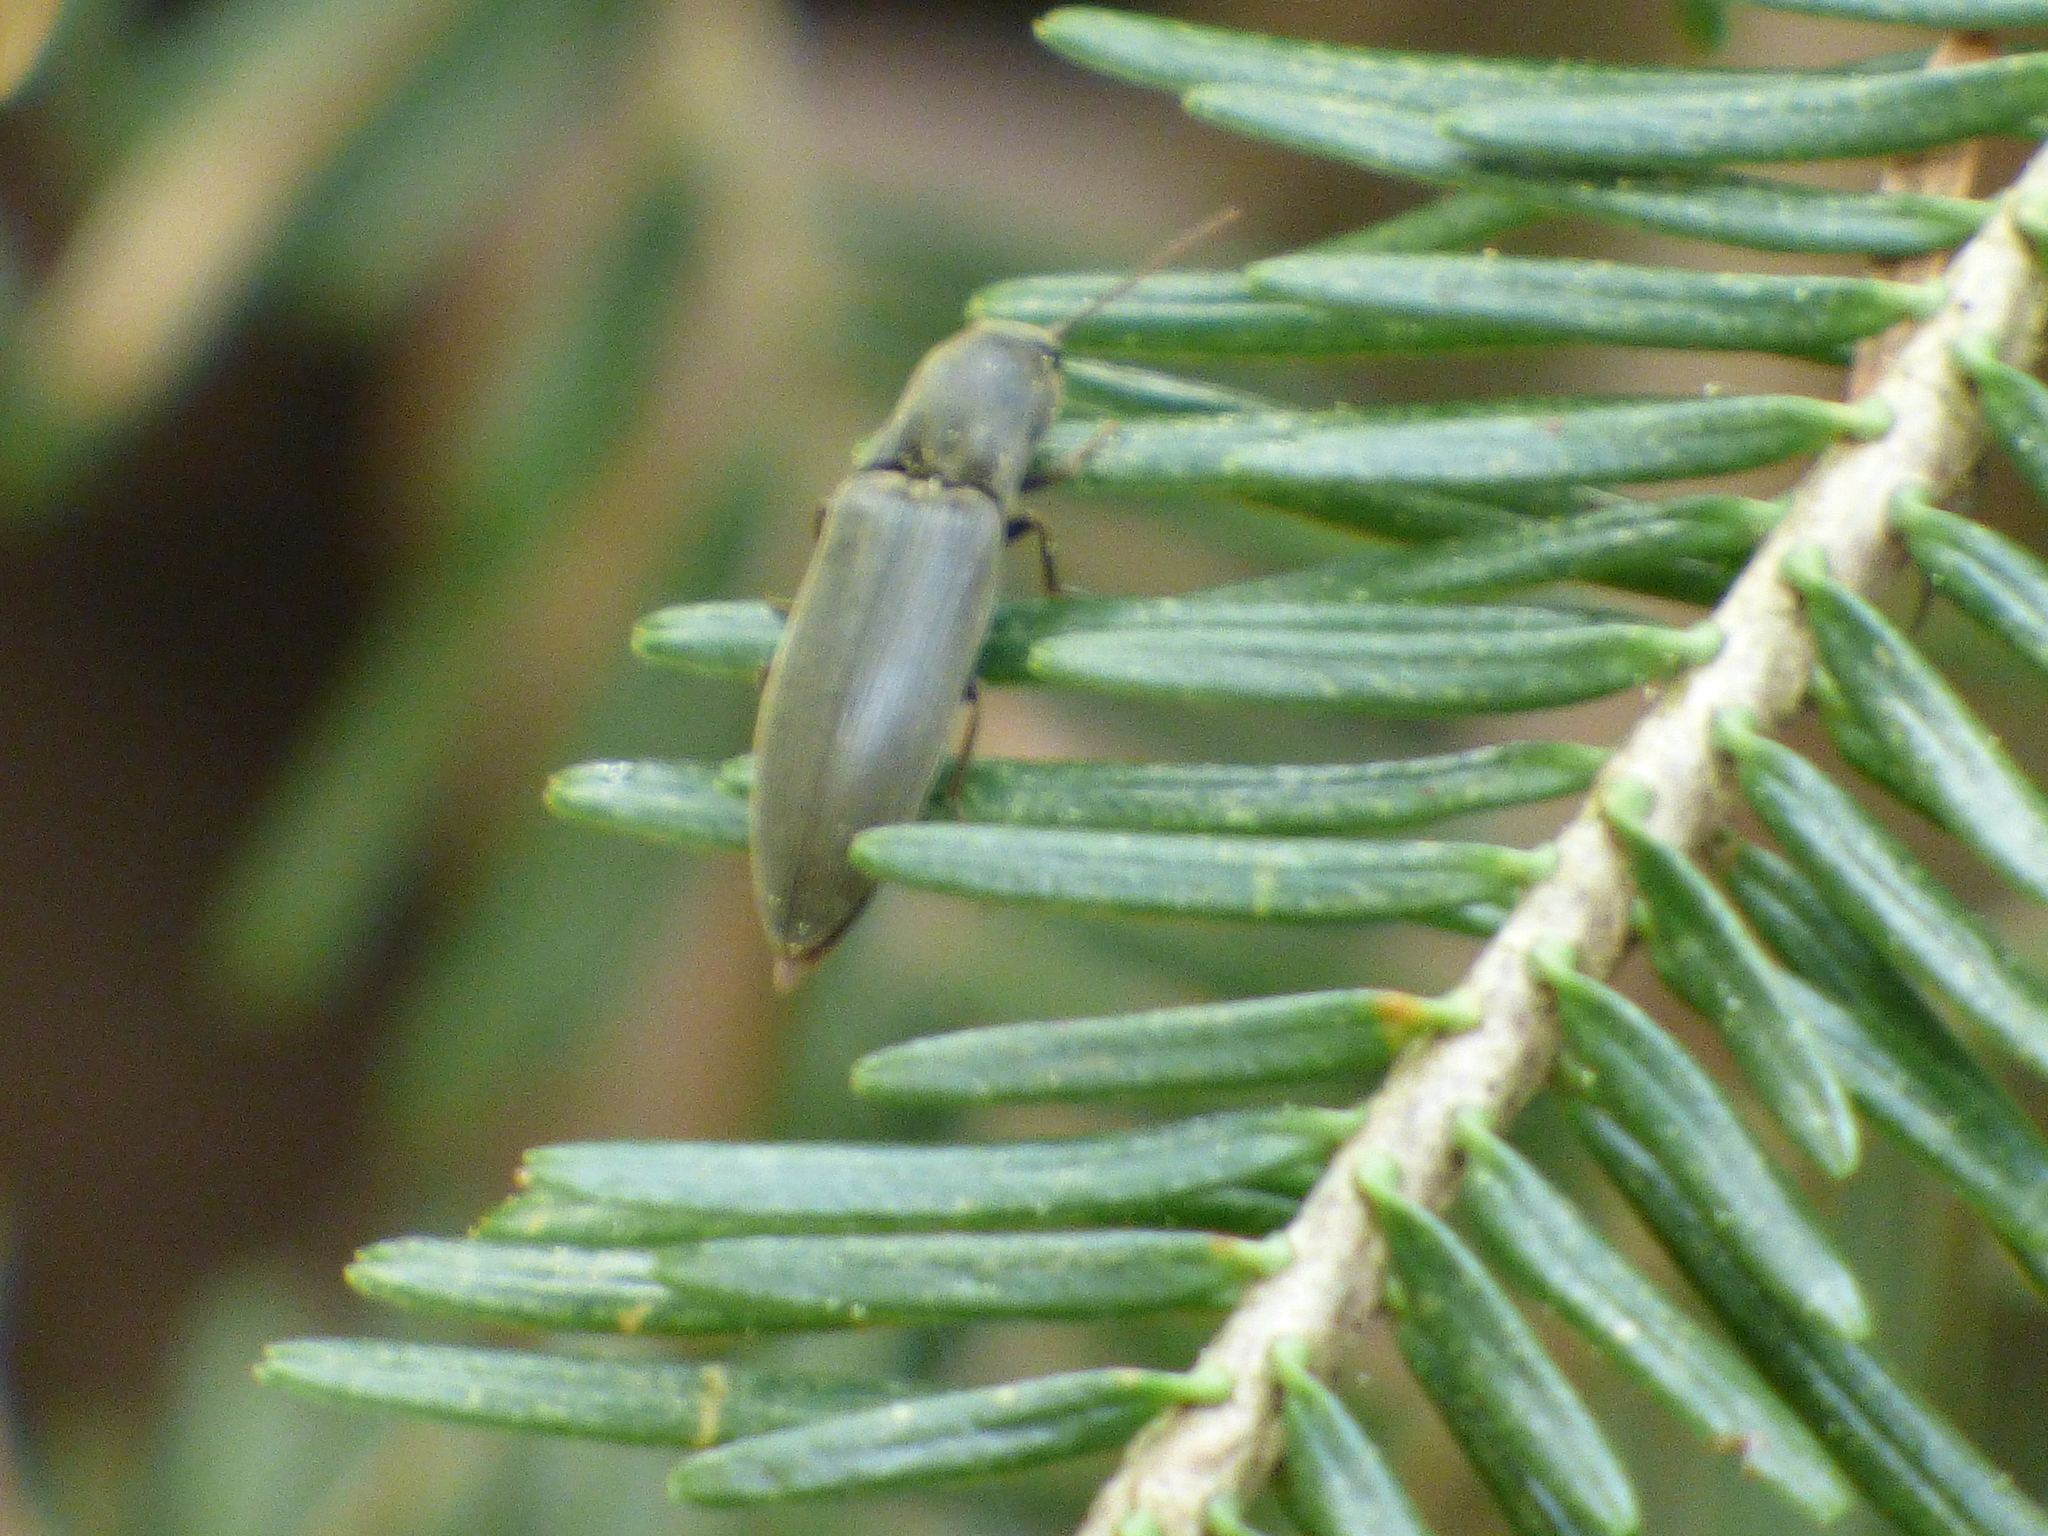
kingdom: Animalia
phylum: Arthropoda
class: Insecta
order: Coleoptera
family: Elateridae
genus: Agriotes
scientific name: Agriotes pilosellus
